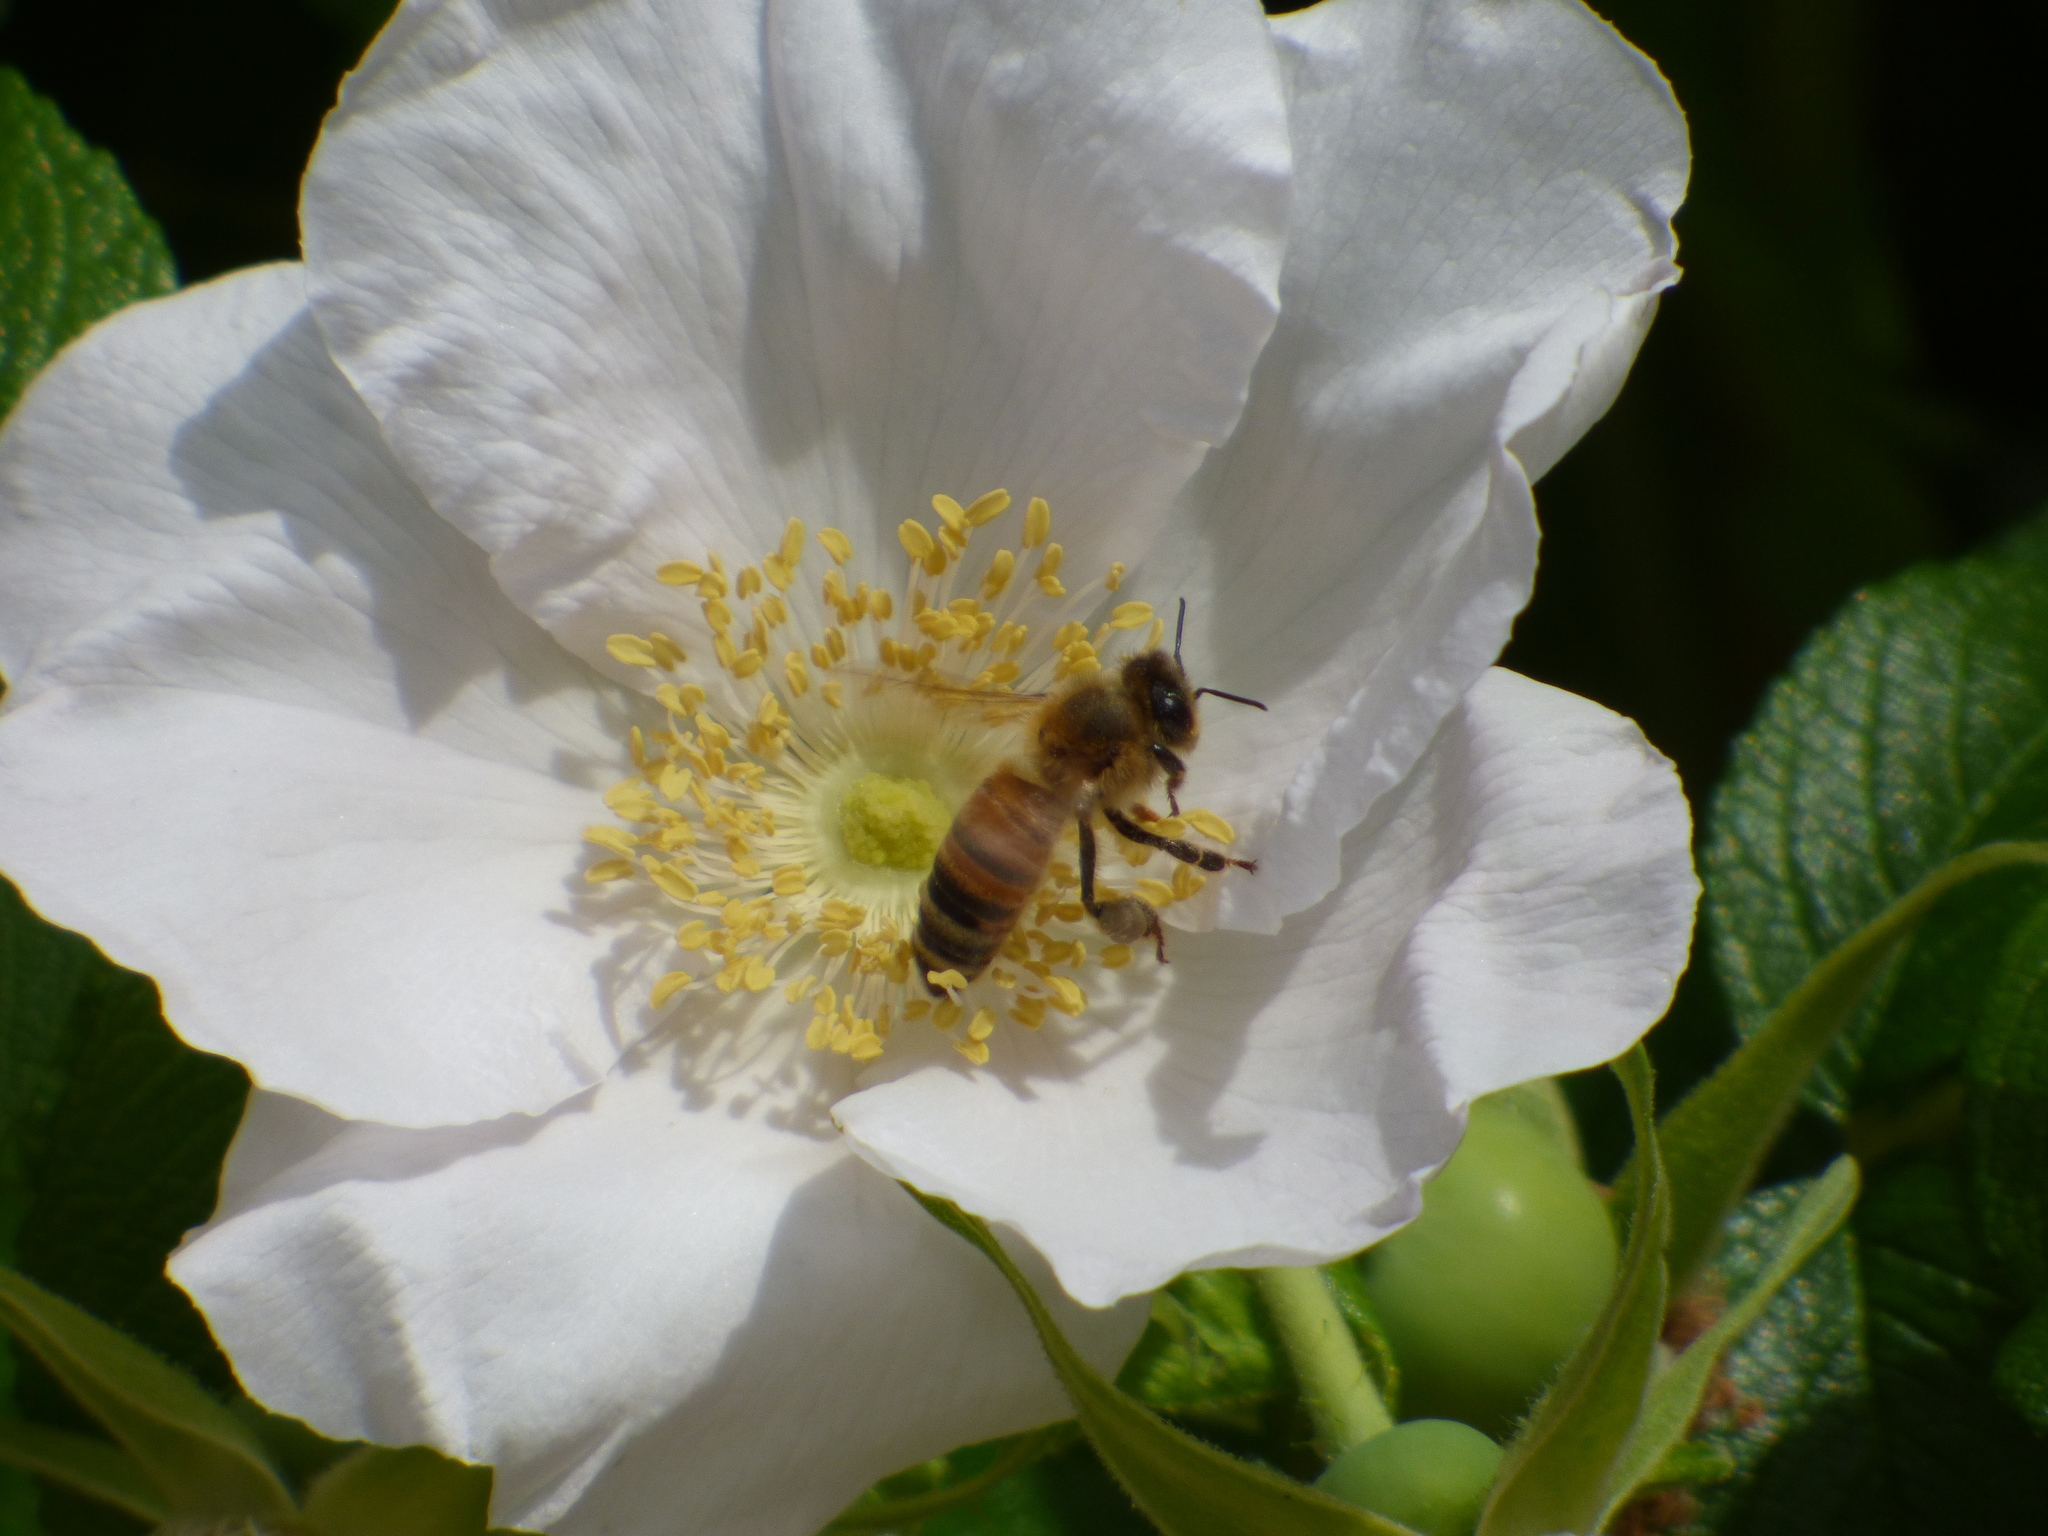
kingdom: Animalia
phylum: Arthropoda
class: Insecta
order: Hymenoptera
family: Apidae
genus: Apis
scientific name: Apis mellifera
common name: Honey bee
